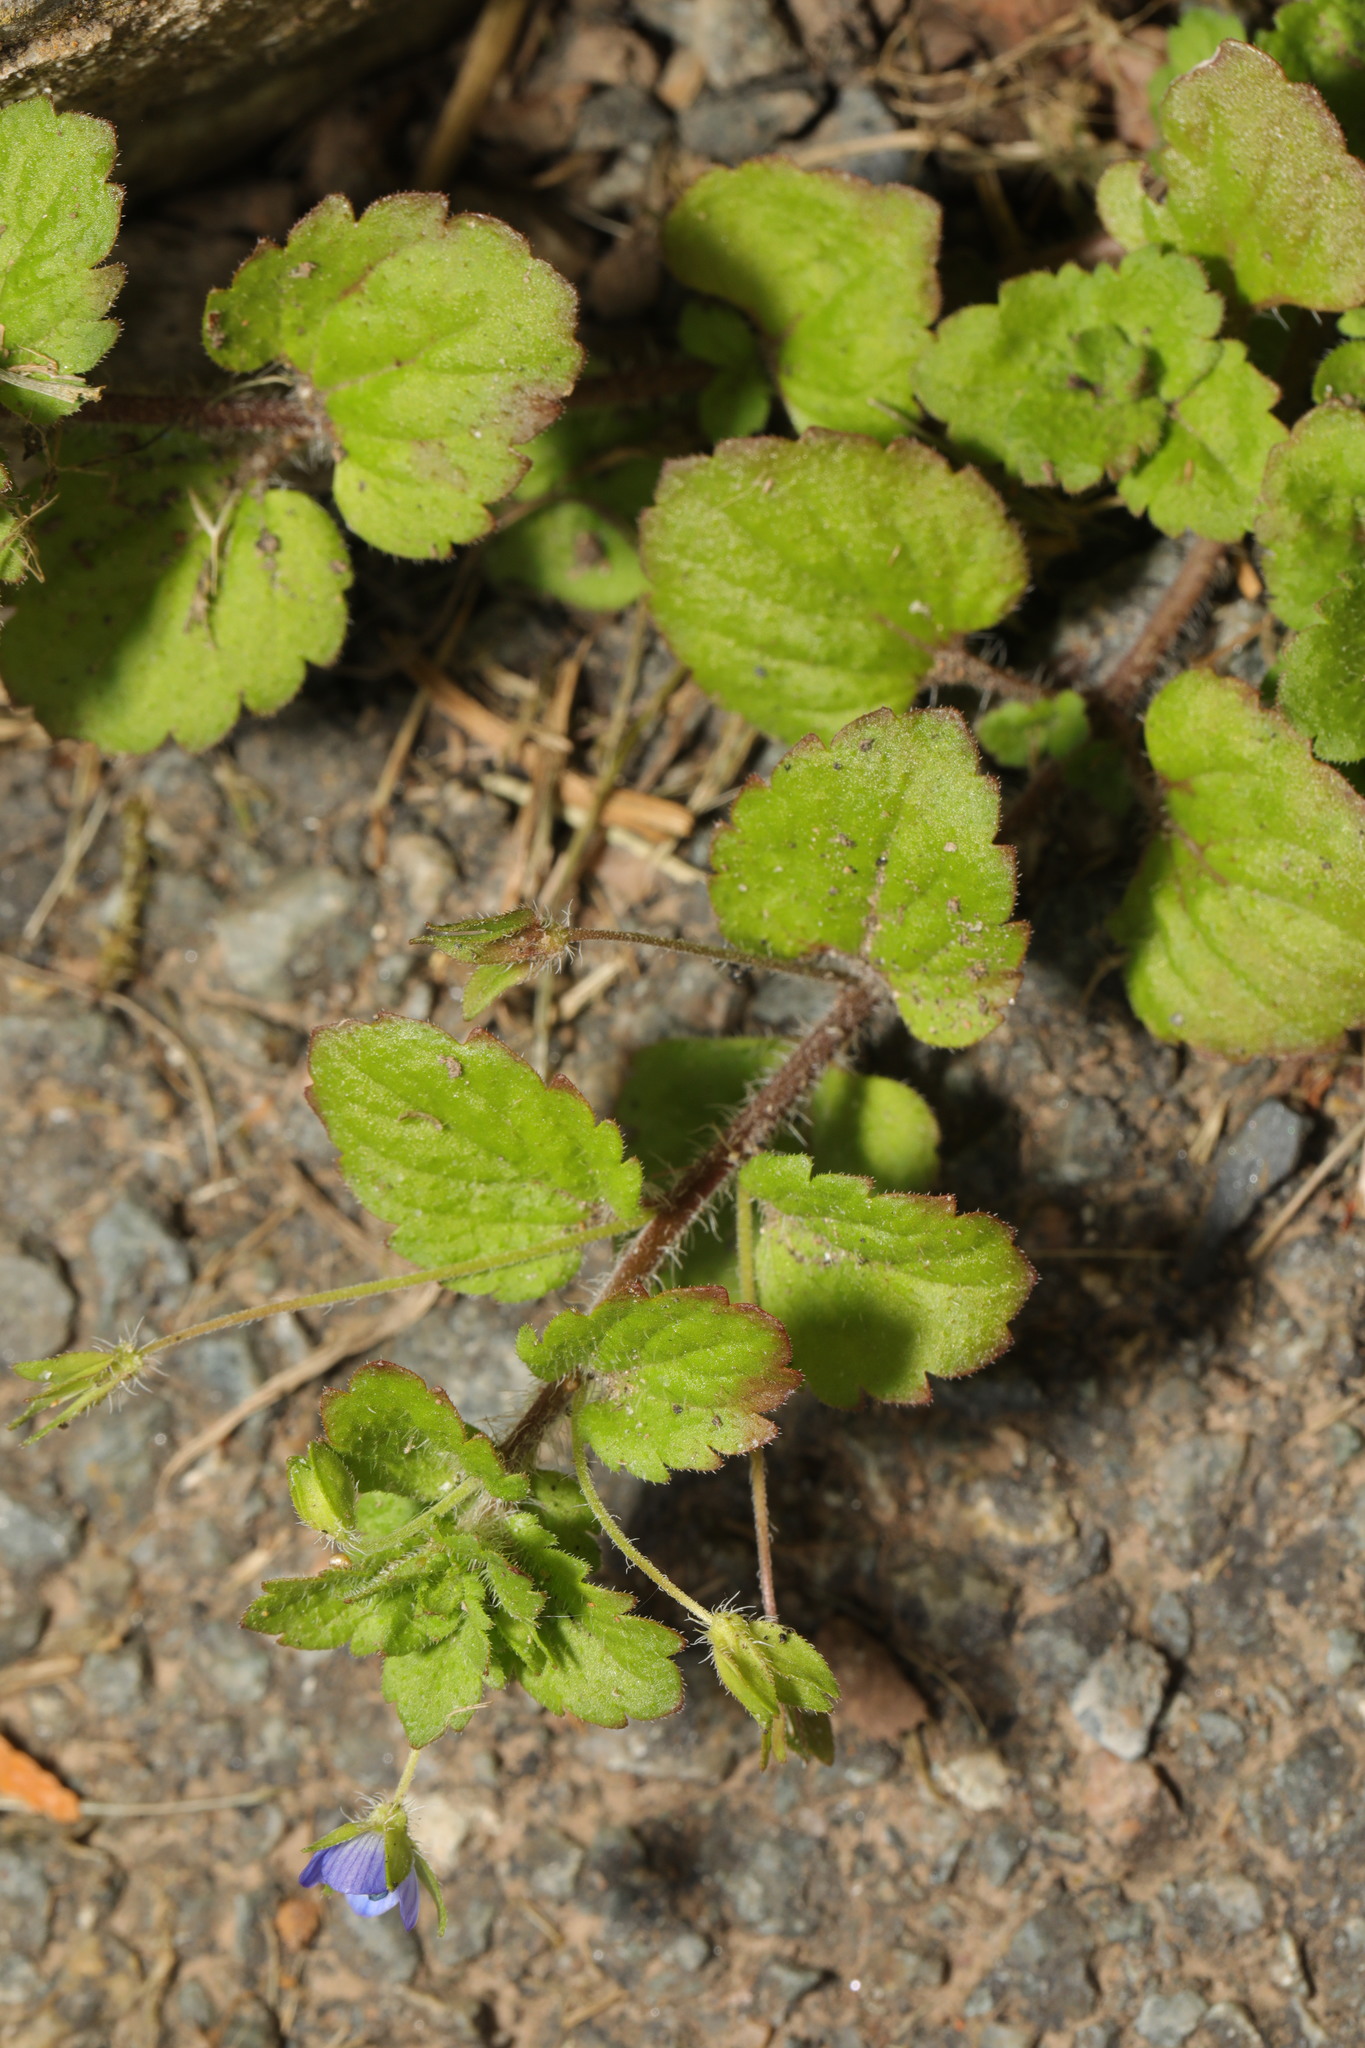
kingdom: Plantae
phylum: Tracheophyta
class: Magnoliopsida
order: Lamiales
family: Plantaginaceae
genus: Veronica
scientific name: Veronica persica
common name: Common field-speedwell
